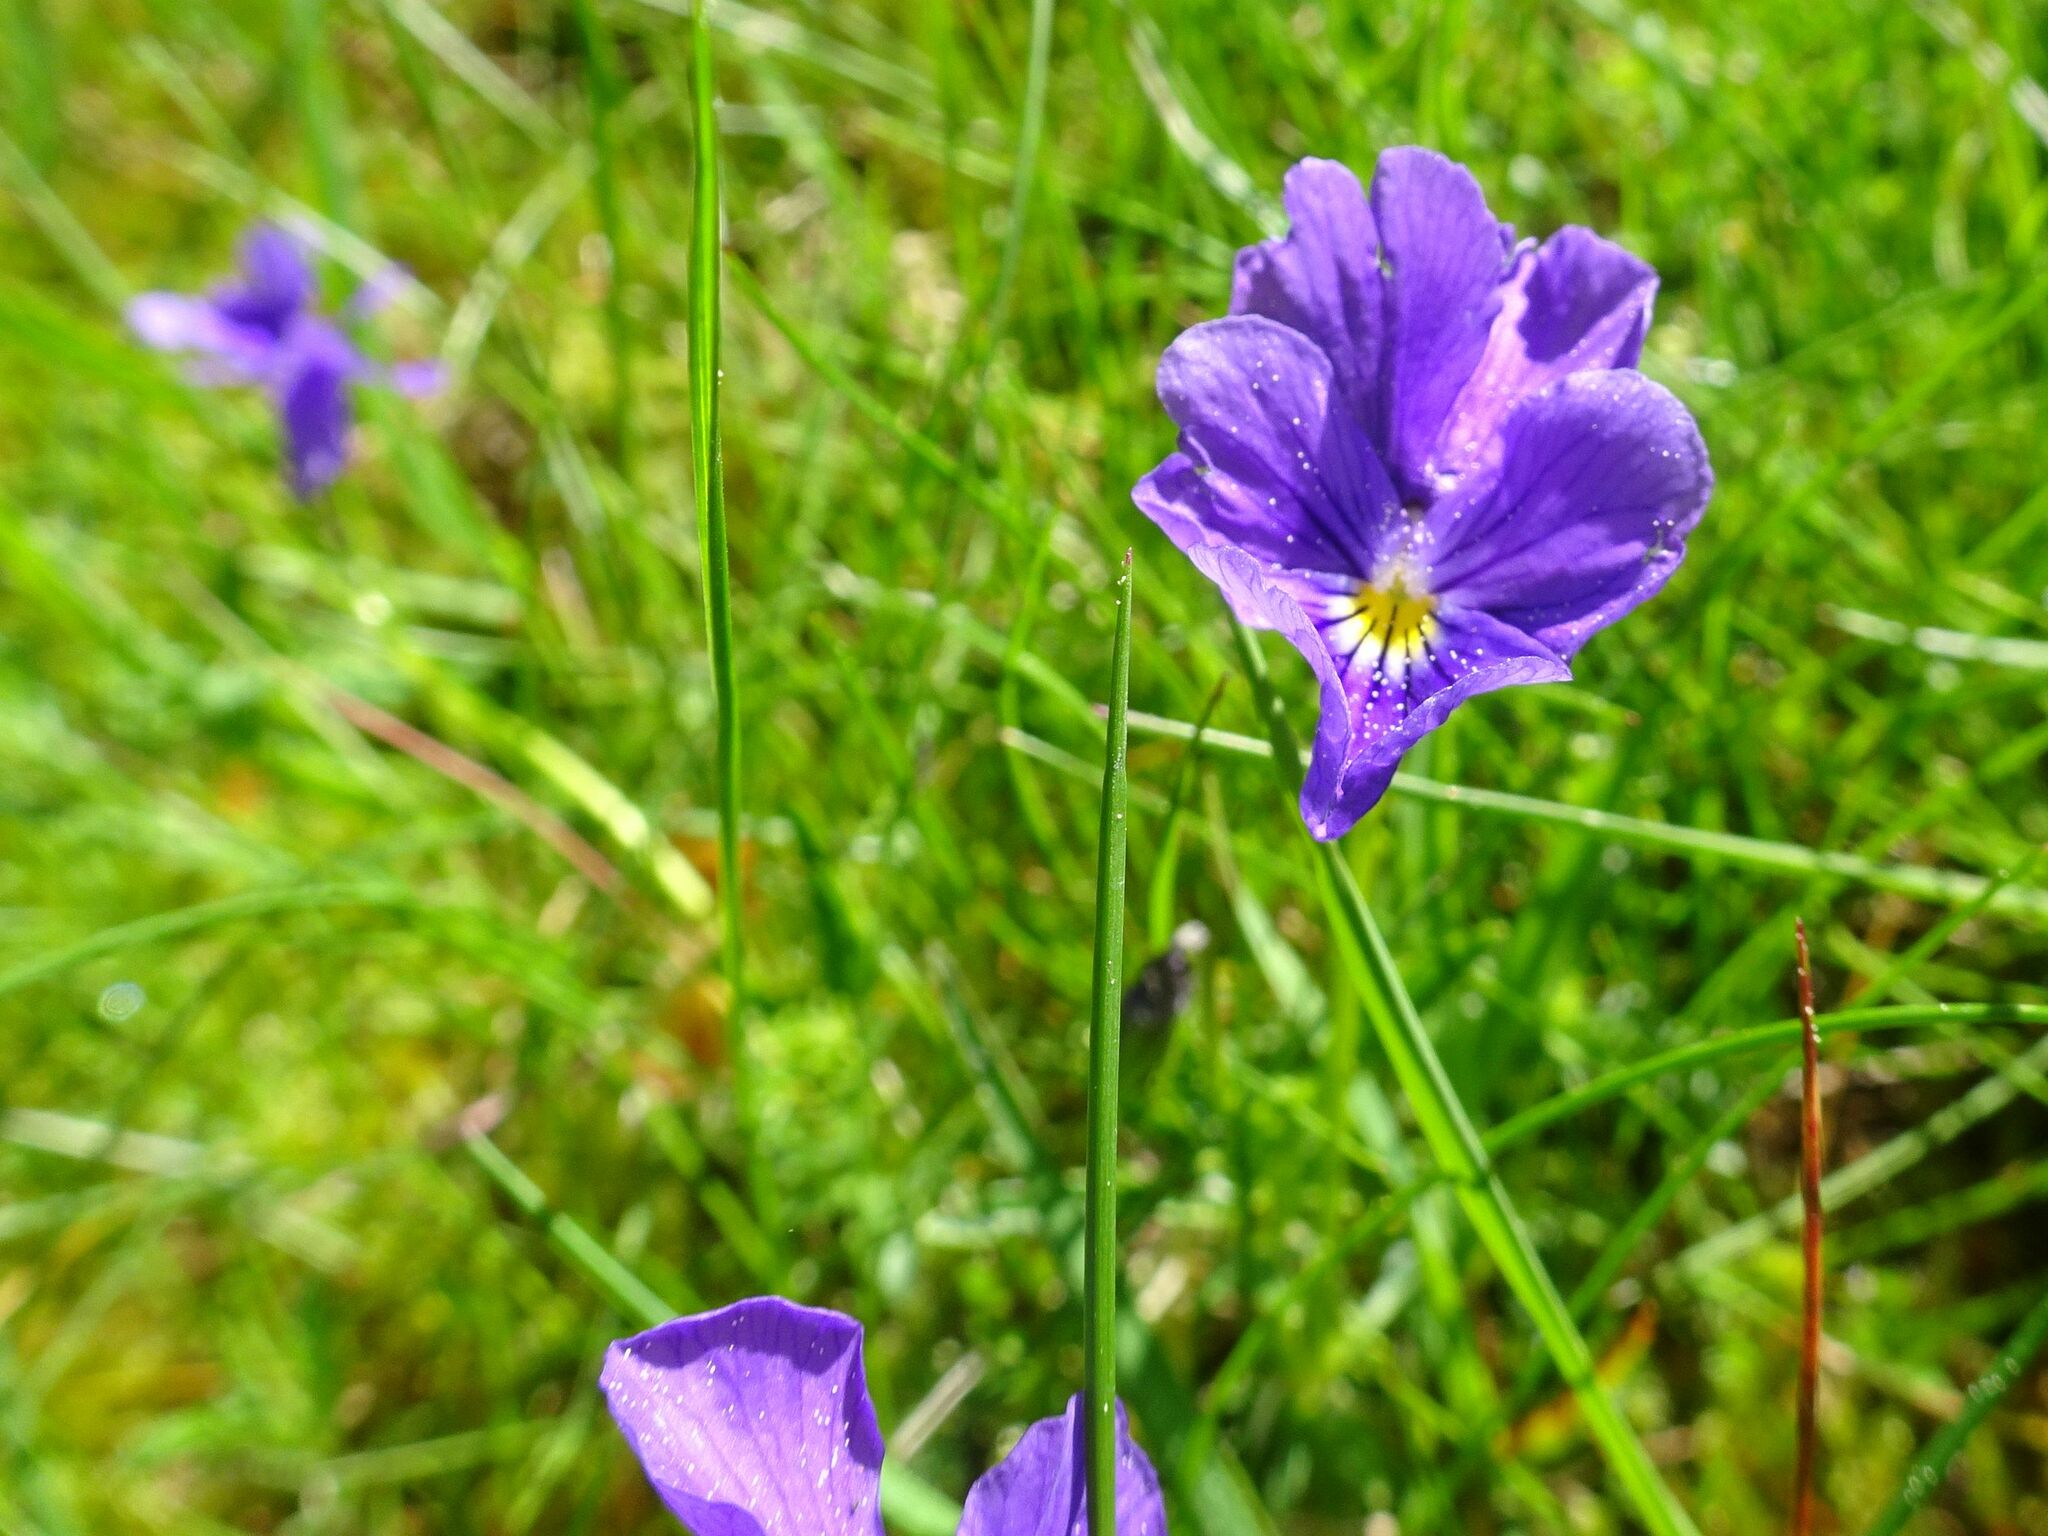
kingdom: Plantae
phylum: Tracheophyta
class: Magnoliopsida
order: Malpighiales
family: Violaceae
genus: Viola
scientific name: Viola lutea
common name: Mountain pansy
